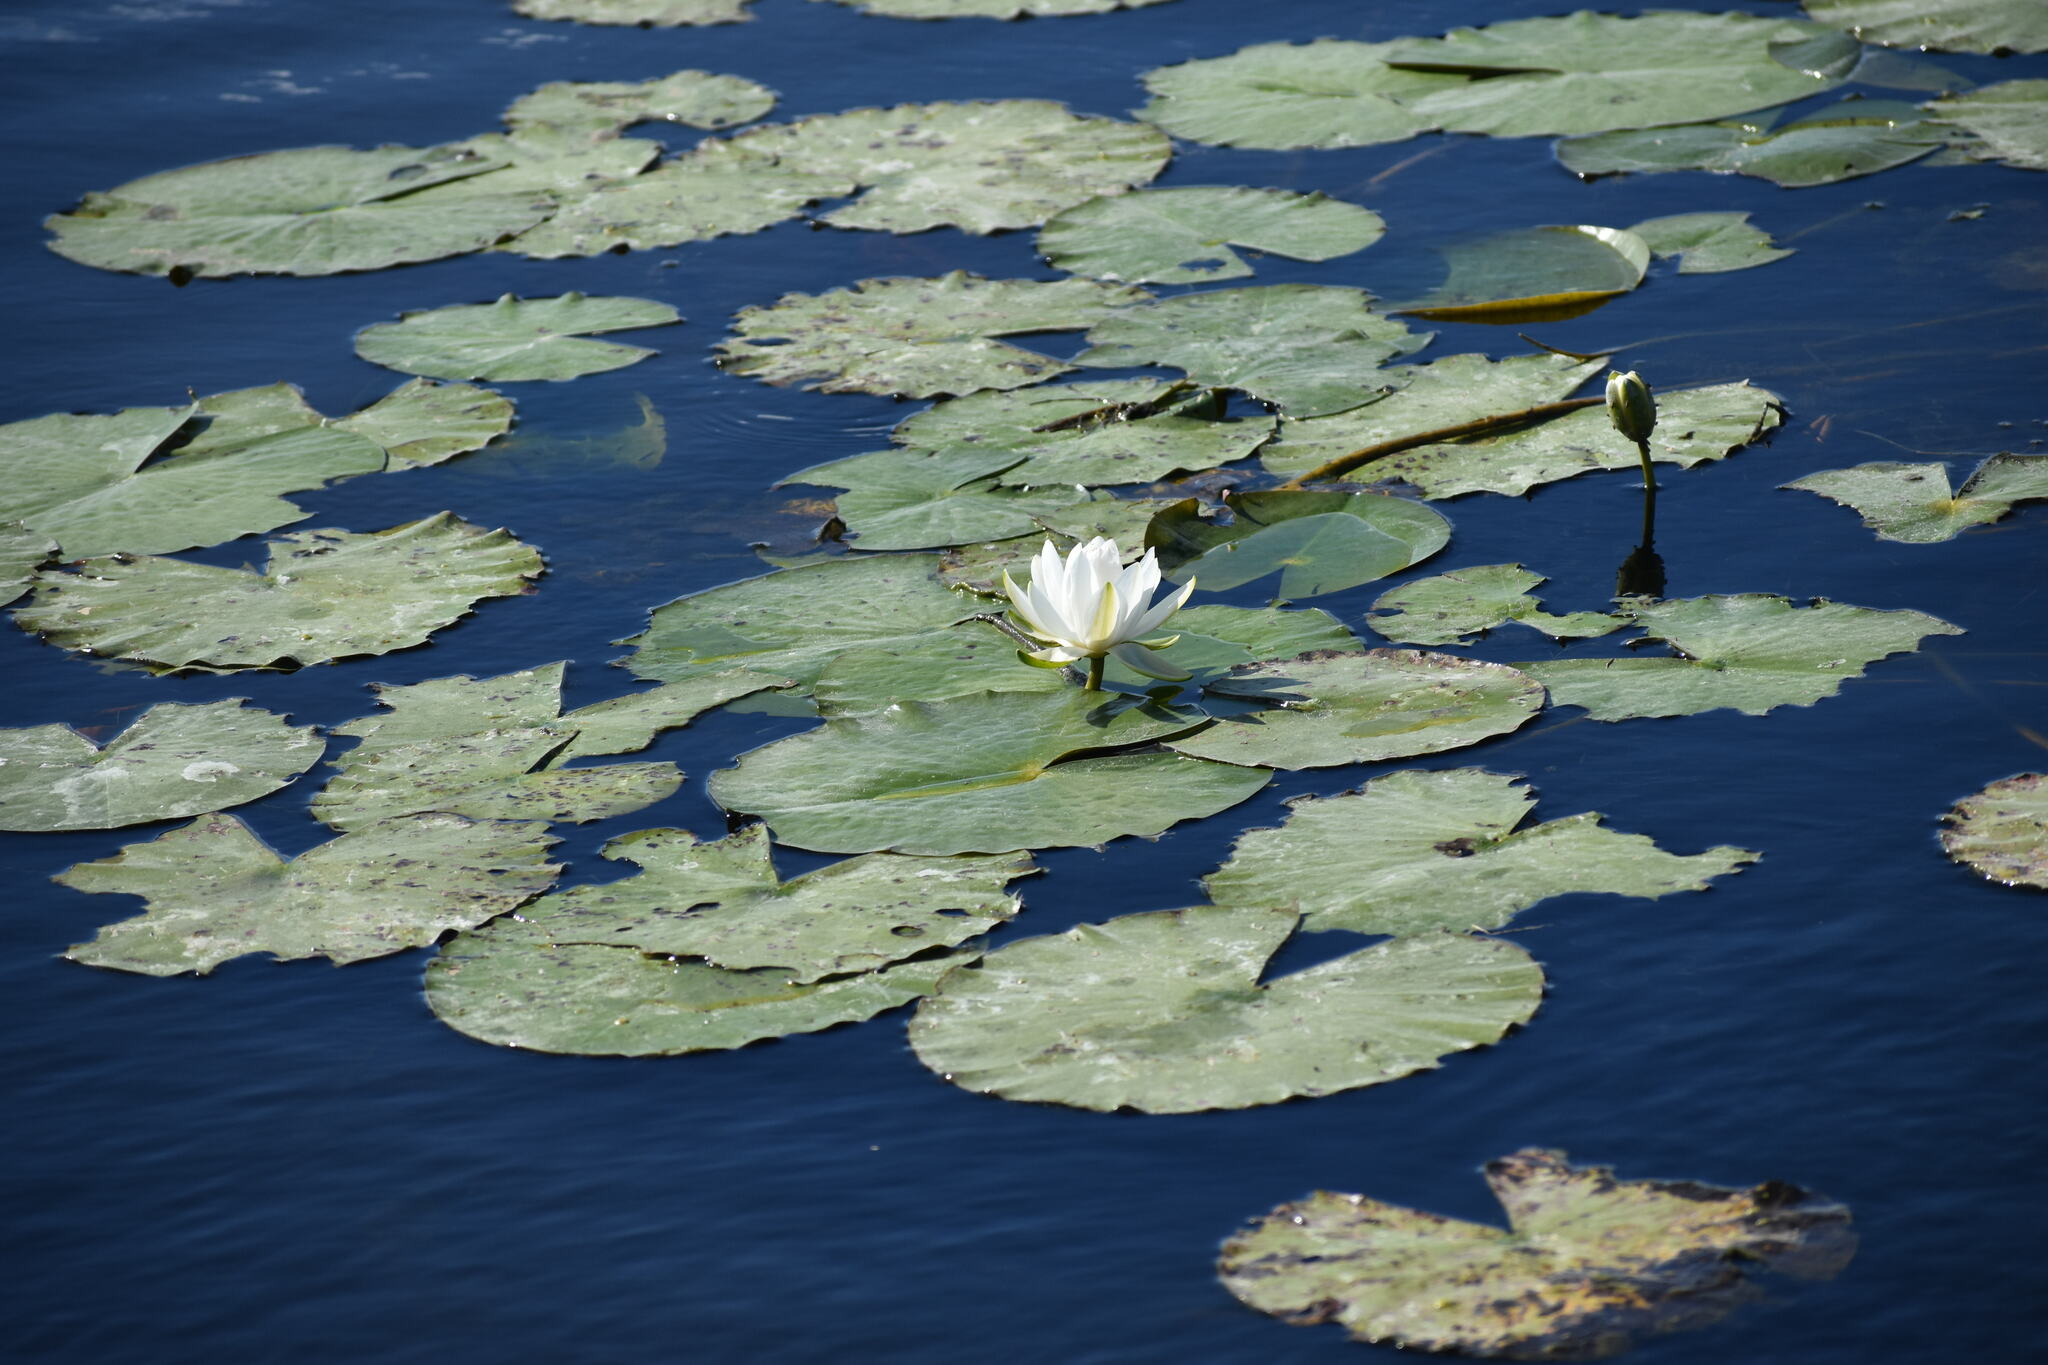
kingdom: Plantae
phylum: Tracheophyta
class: Magnoliopsida
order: Nymphaeales
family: Nymphaeaceae
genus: Nymphaea
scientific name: Nymphaea odorata
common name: Fragrant water-lily
